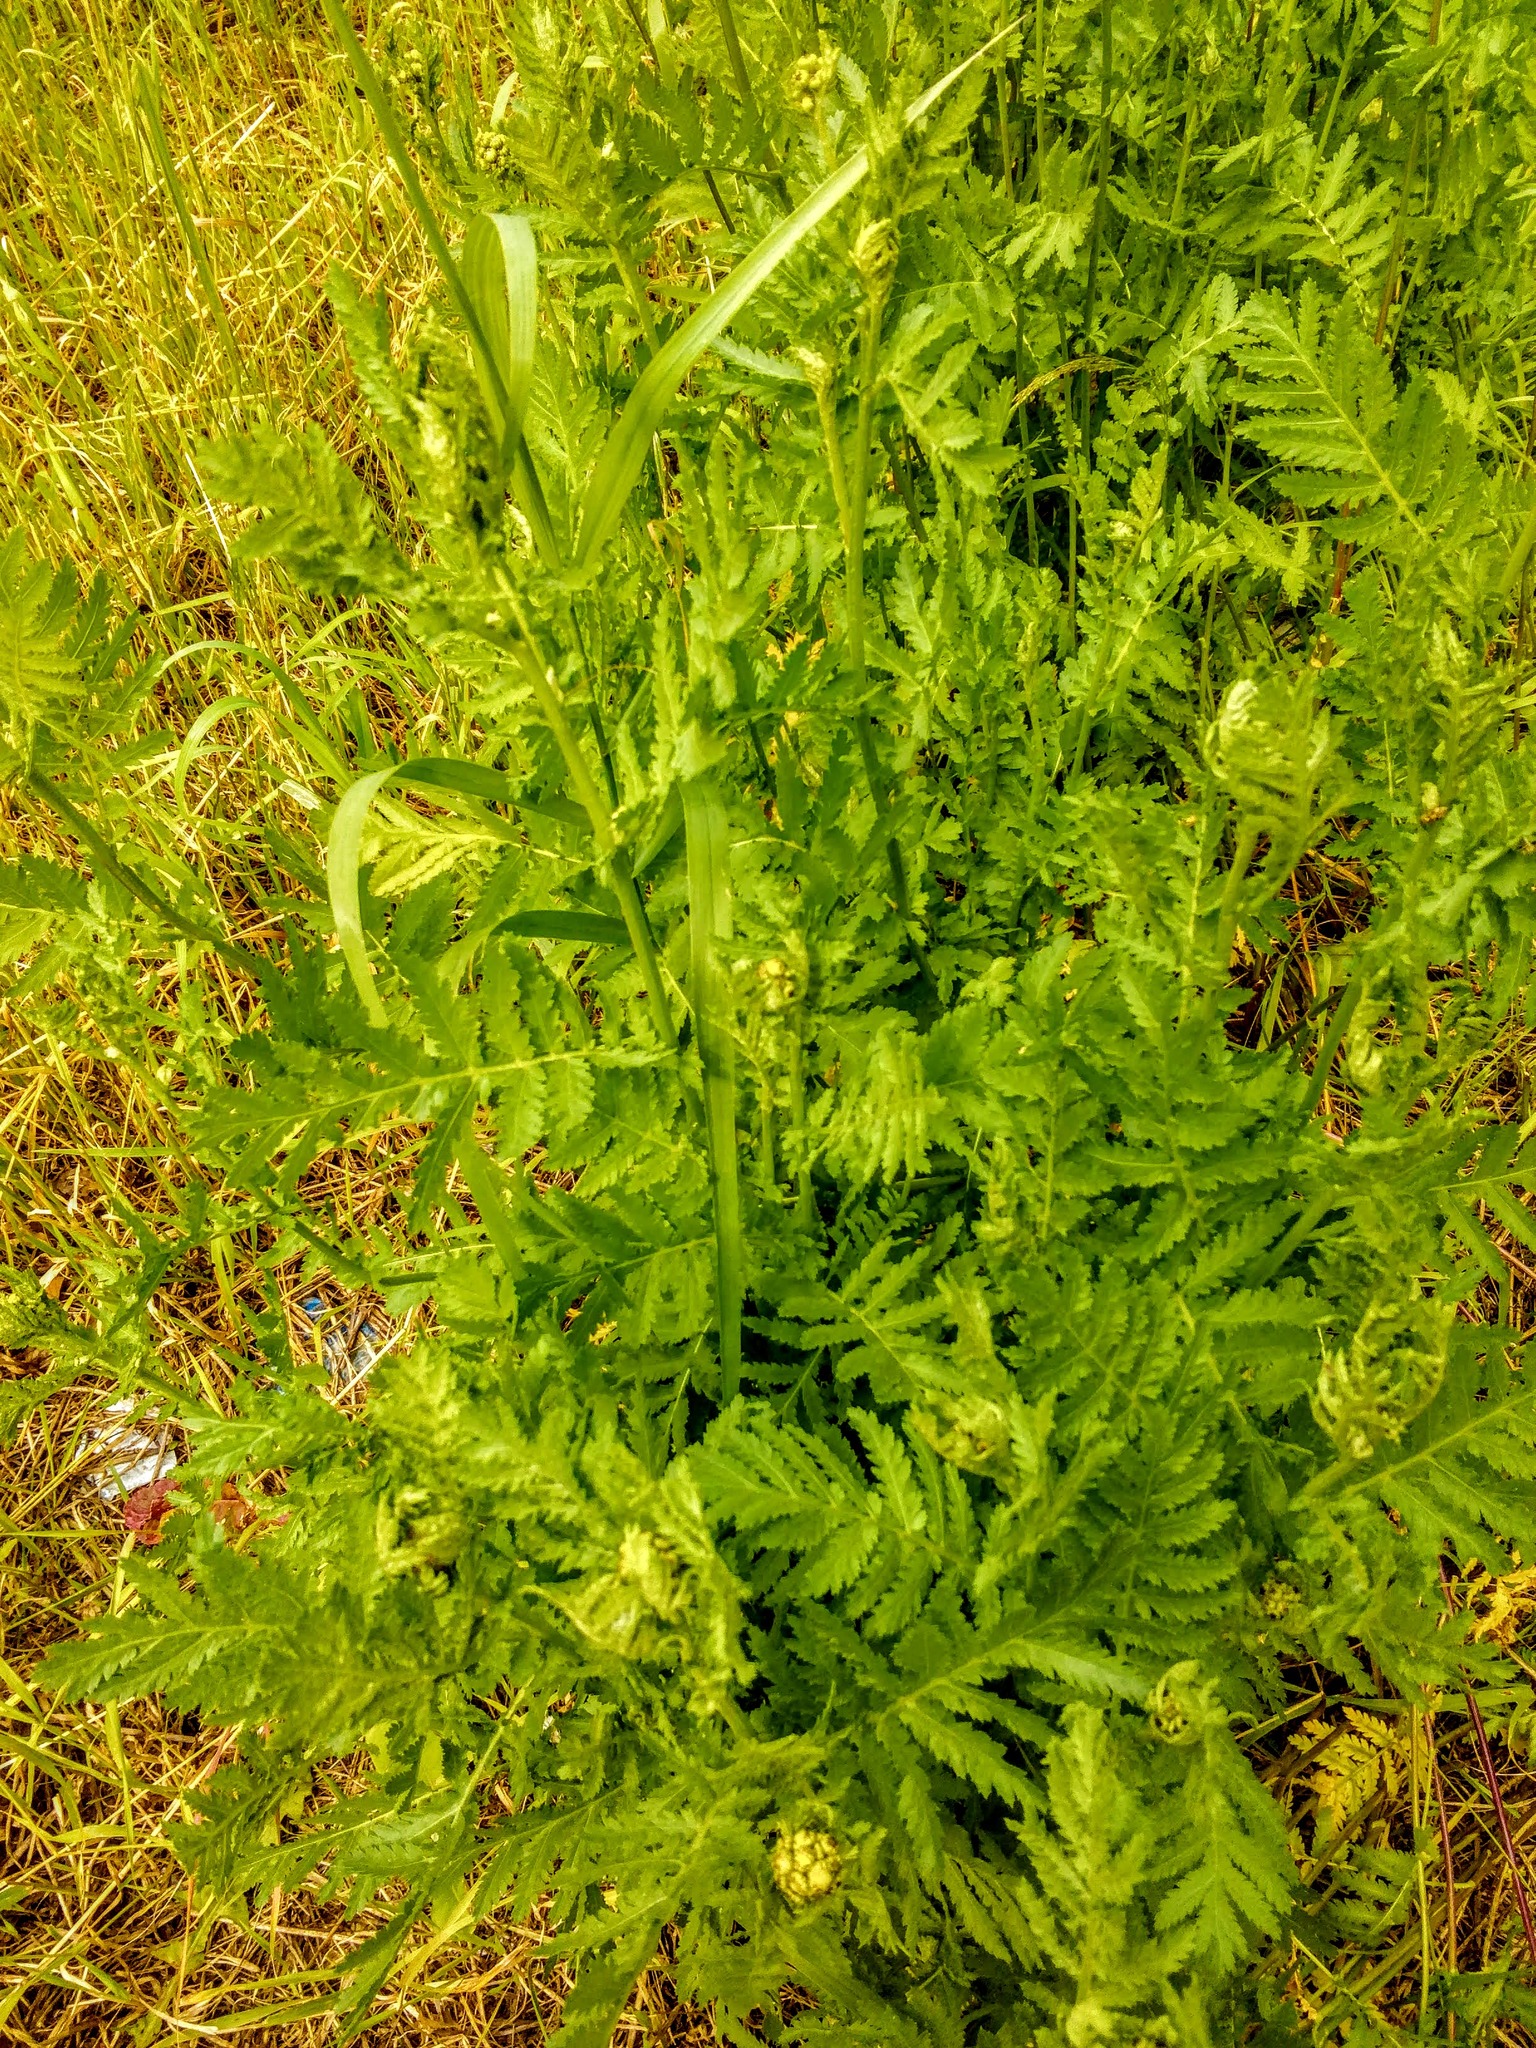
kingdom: Plantae
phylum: Tracheophyta
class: Magnoliopsida
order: Asterales
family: Asteraceae
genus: Tanacetum
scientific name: Tanacetum vulgare
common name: Common tansy
